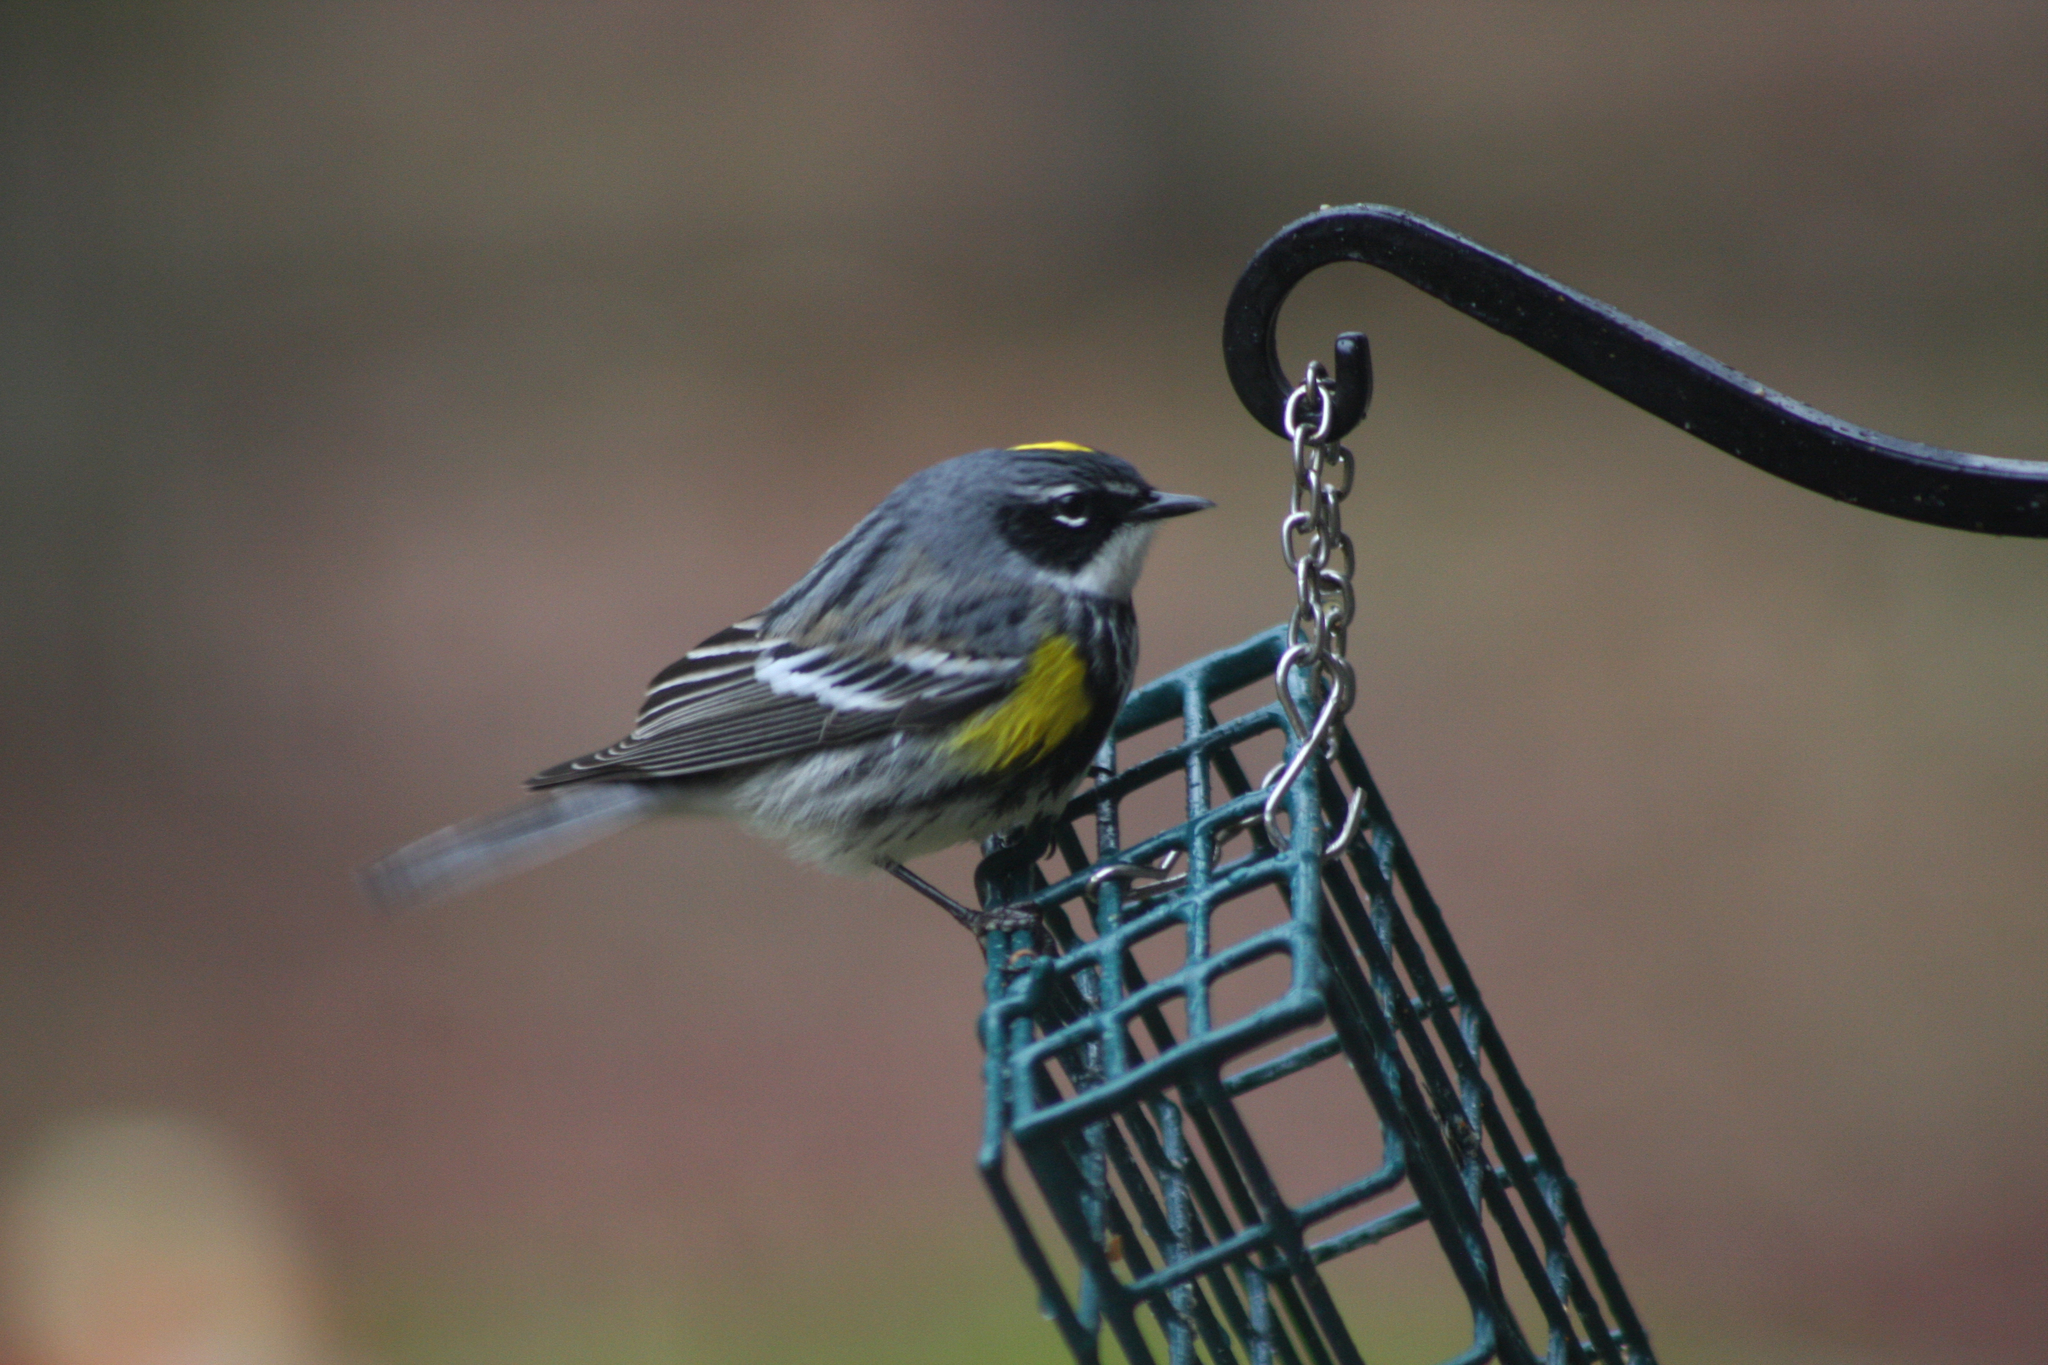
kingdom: Animalia
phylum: Chordata
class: Aves
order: Passeriformes
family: Parulidae
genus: Setophaga
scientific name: Setophaga coronata
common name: Myrtle warbler
